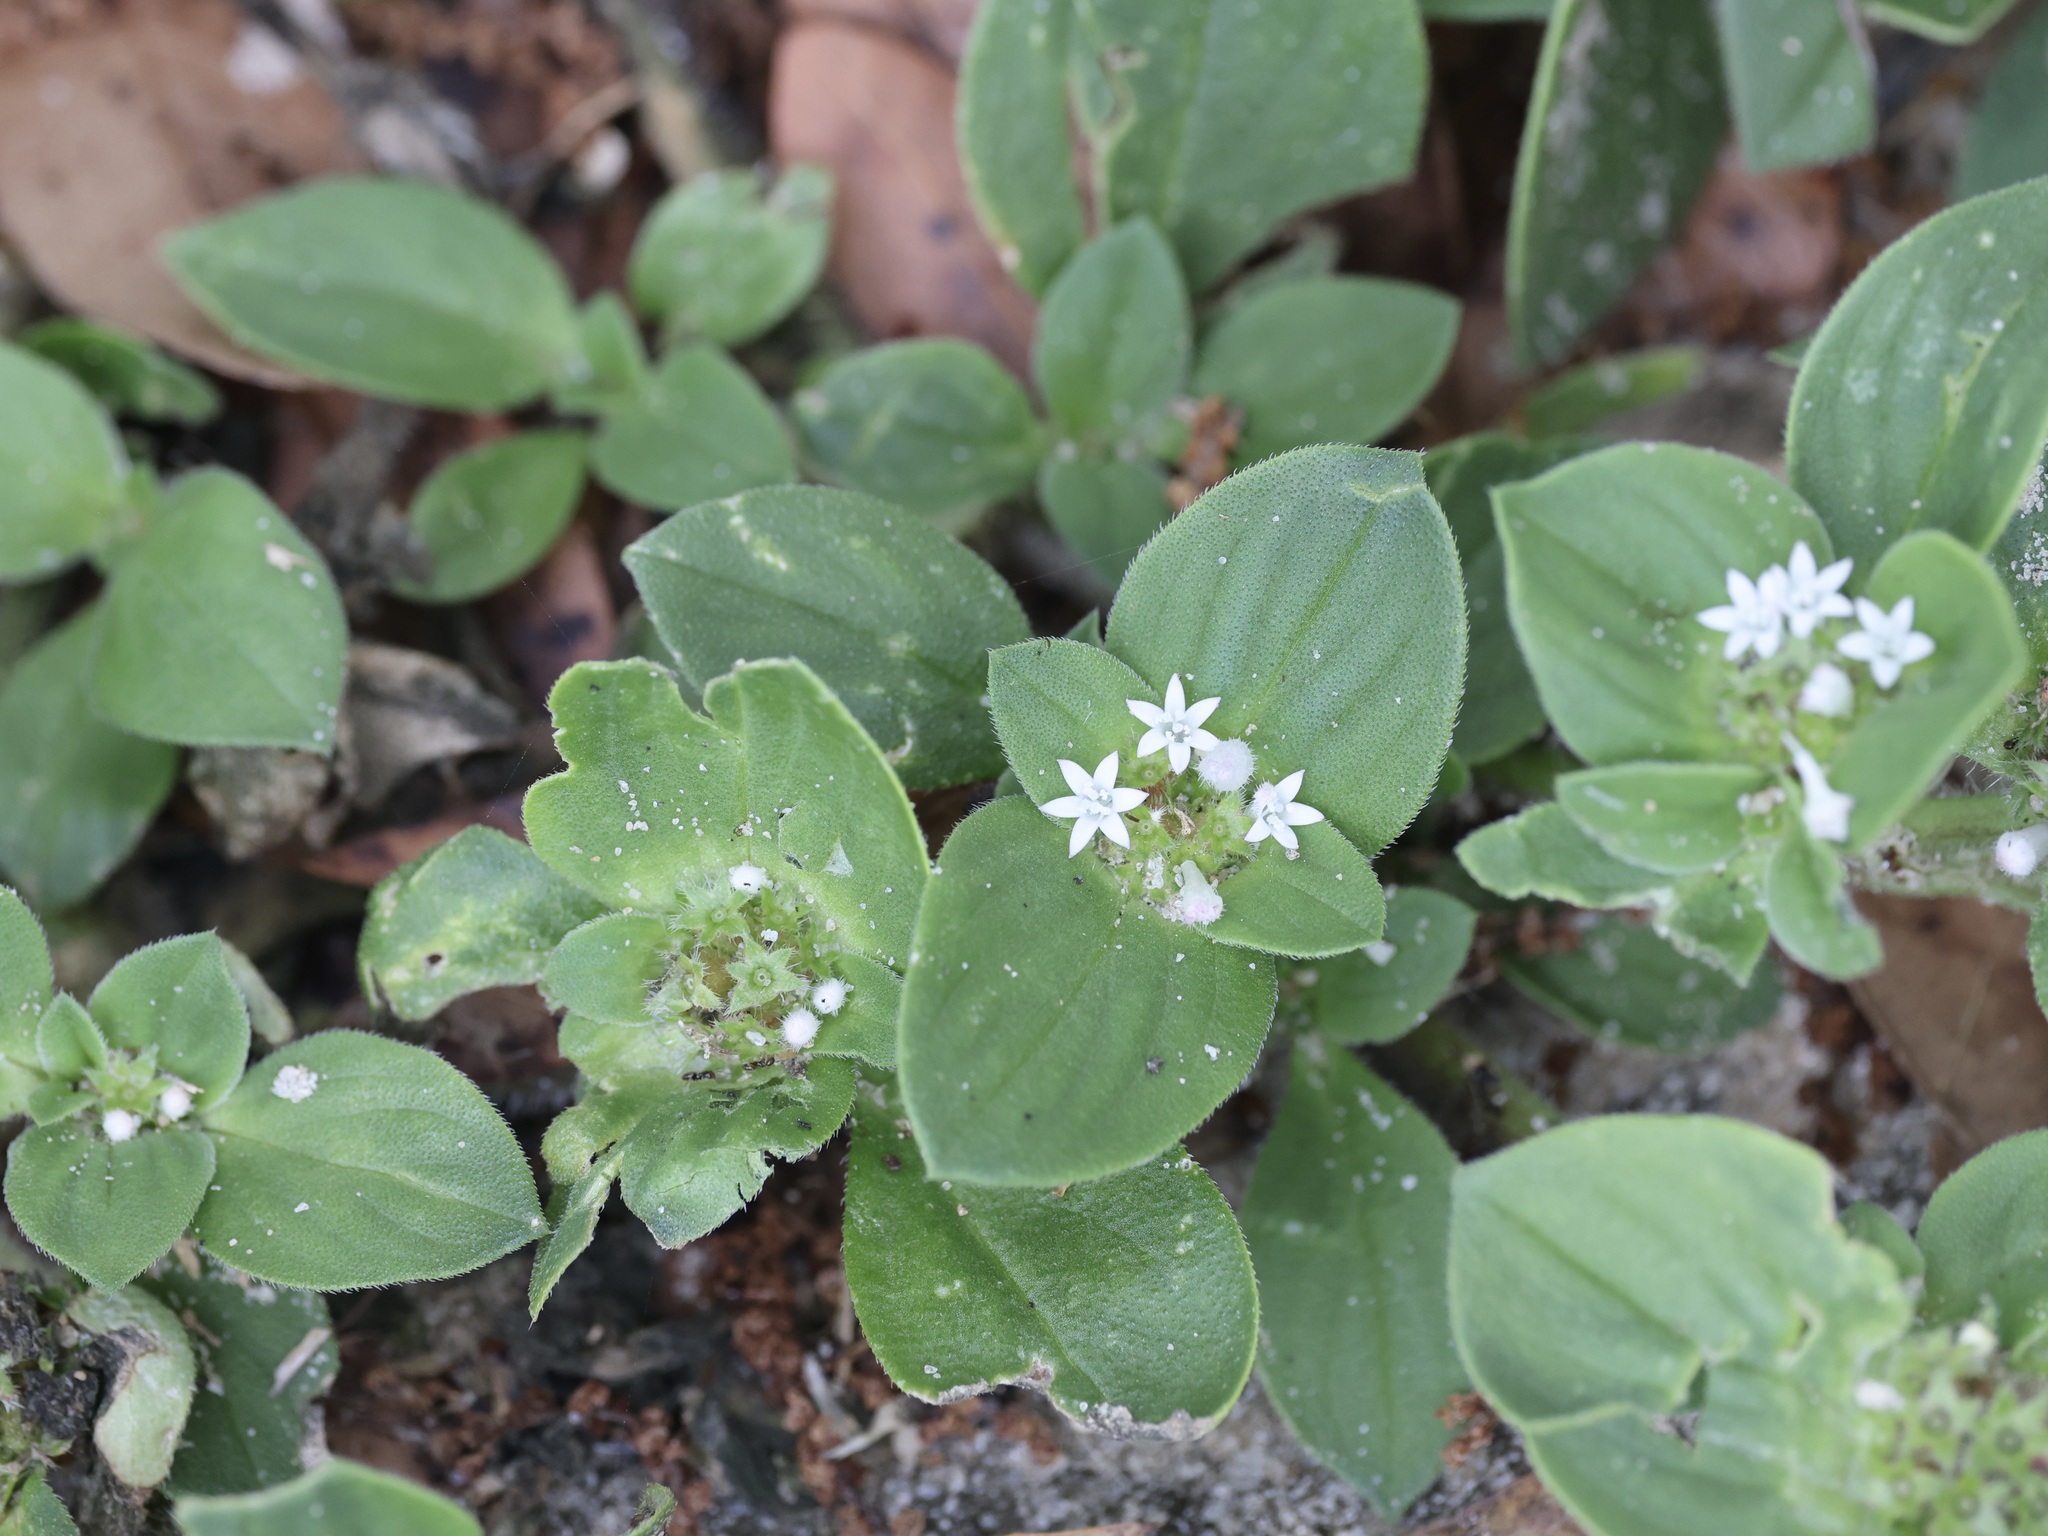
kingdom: Plantae
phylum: Tracheophyta
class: Magnoliopsida
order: Gentianales
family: Rubiaceae
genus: Richardia
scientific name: Richardia brasiliensis
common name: Tropical mexican clover
